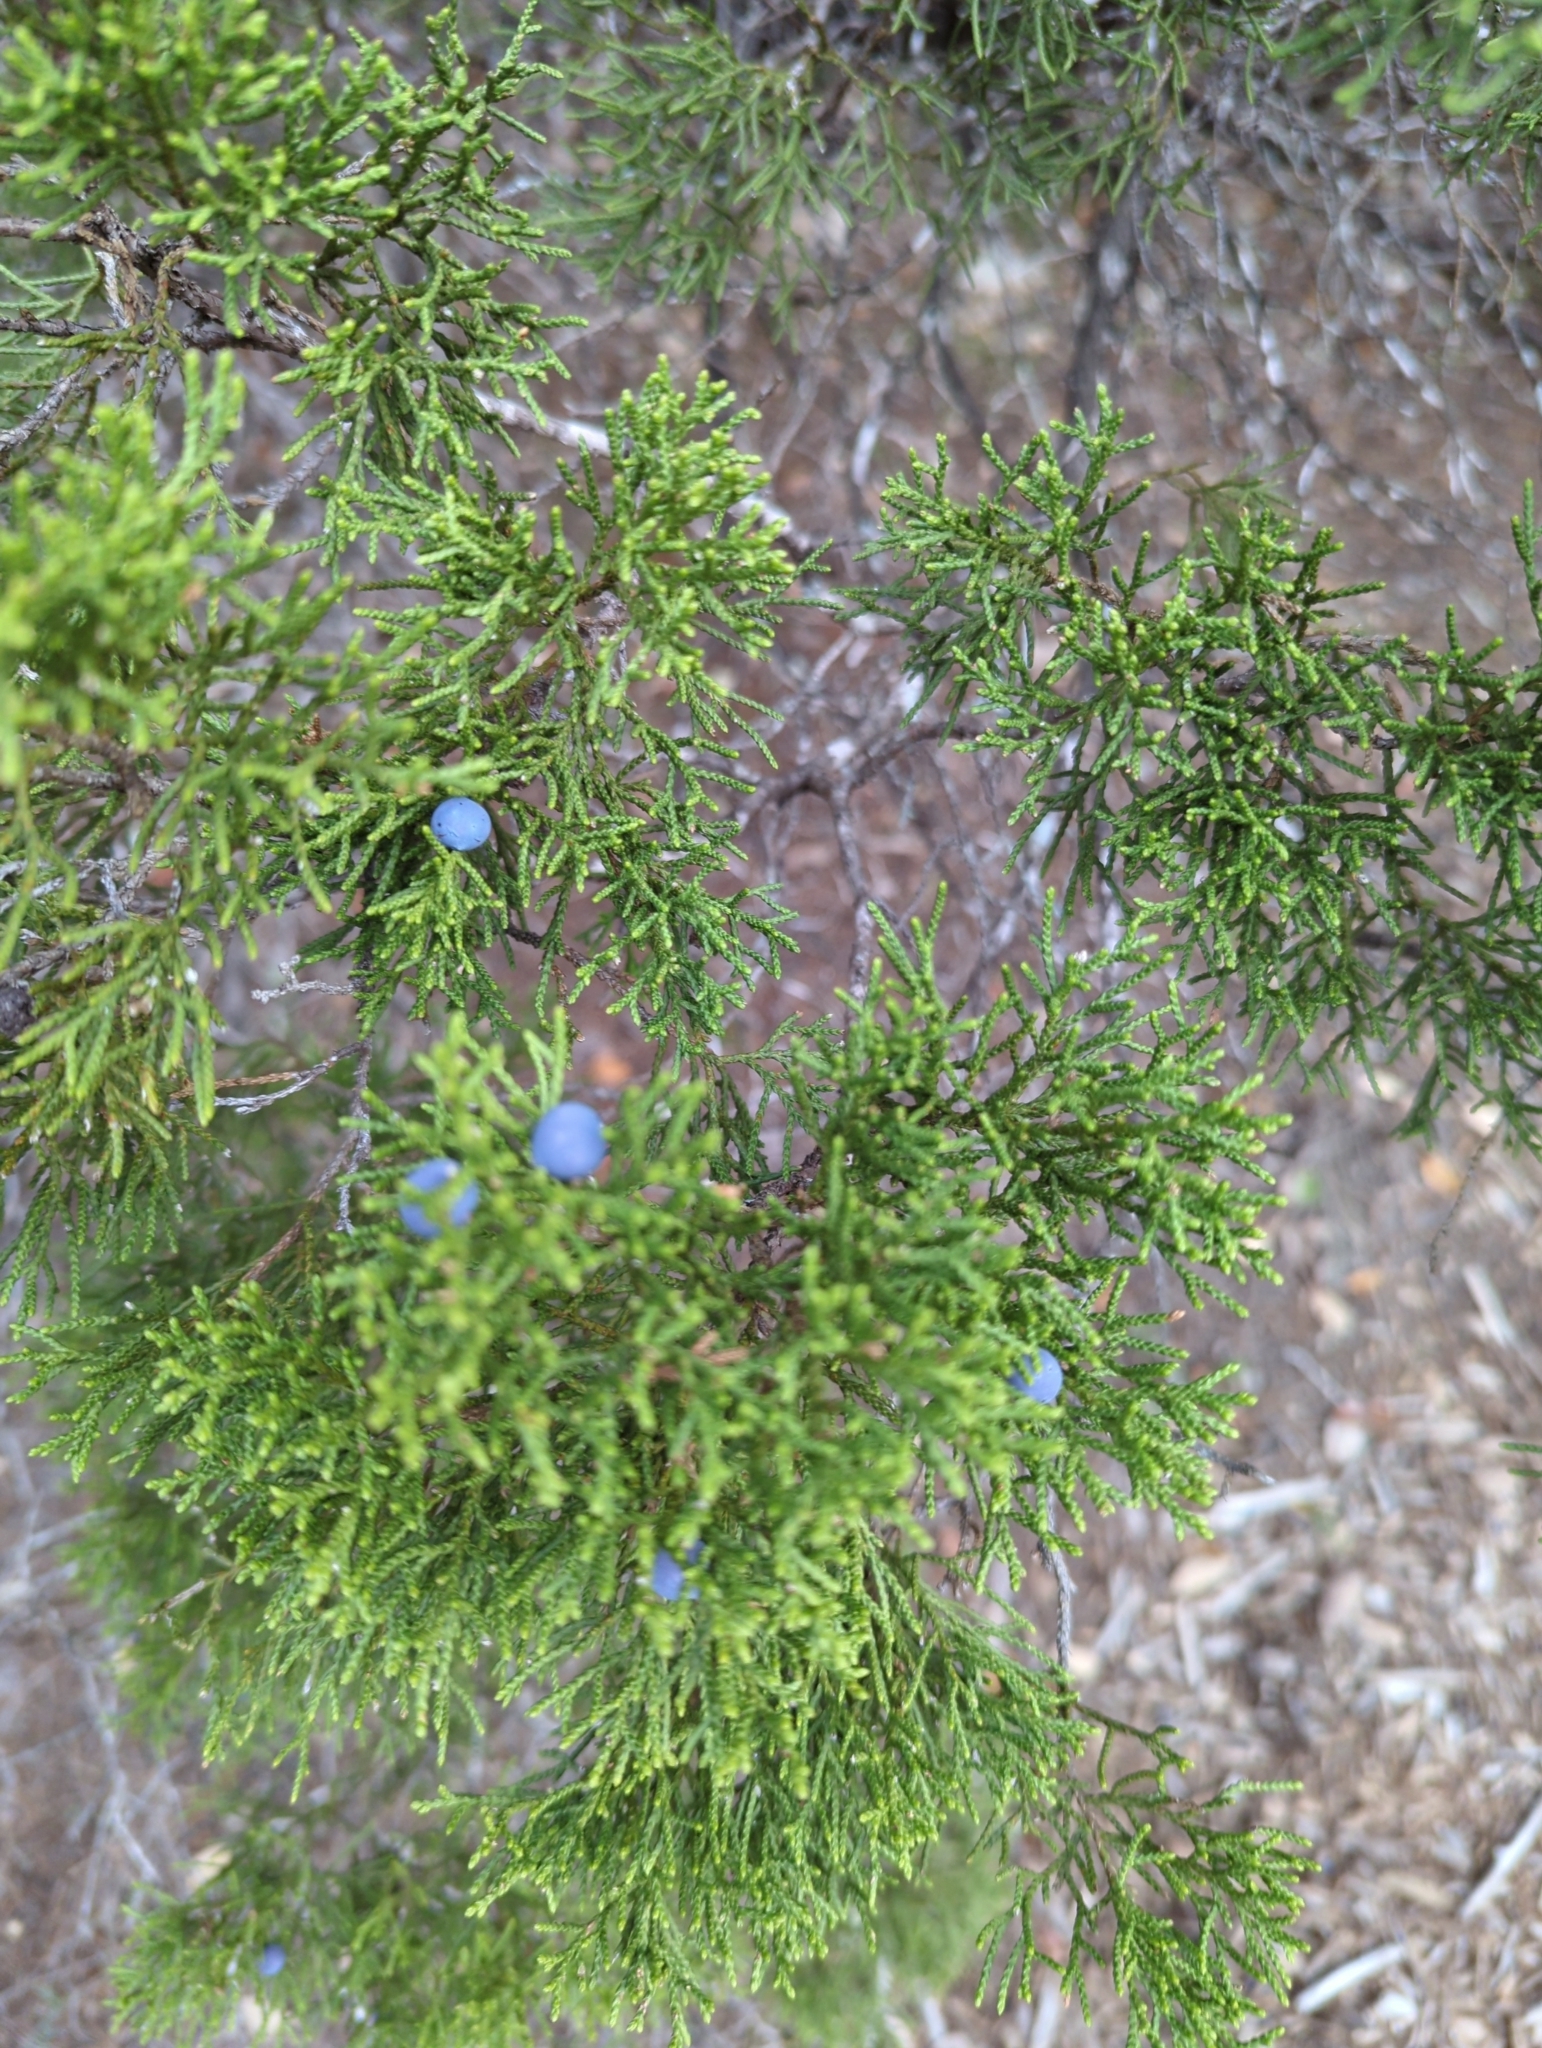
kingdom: Plantae
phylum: Tracheophyta
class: Pinopsida
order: Pinales
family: Cupressaceae
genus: Juniperus
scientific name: Juniperus ashei
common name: Mexican juniper
